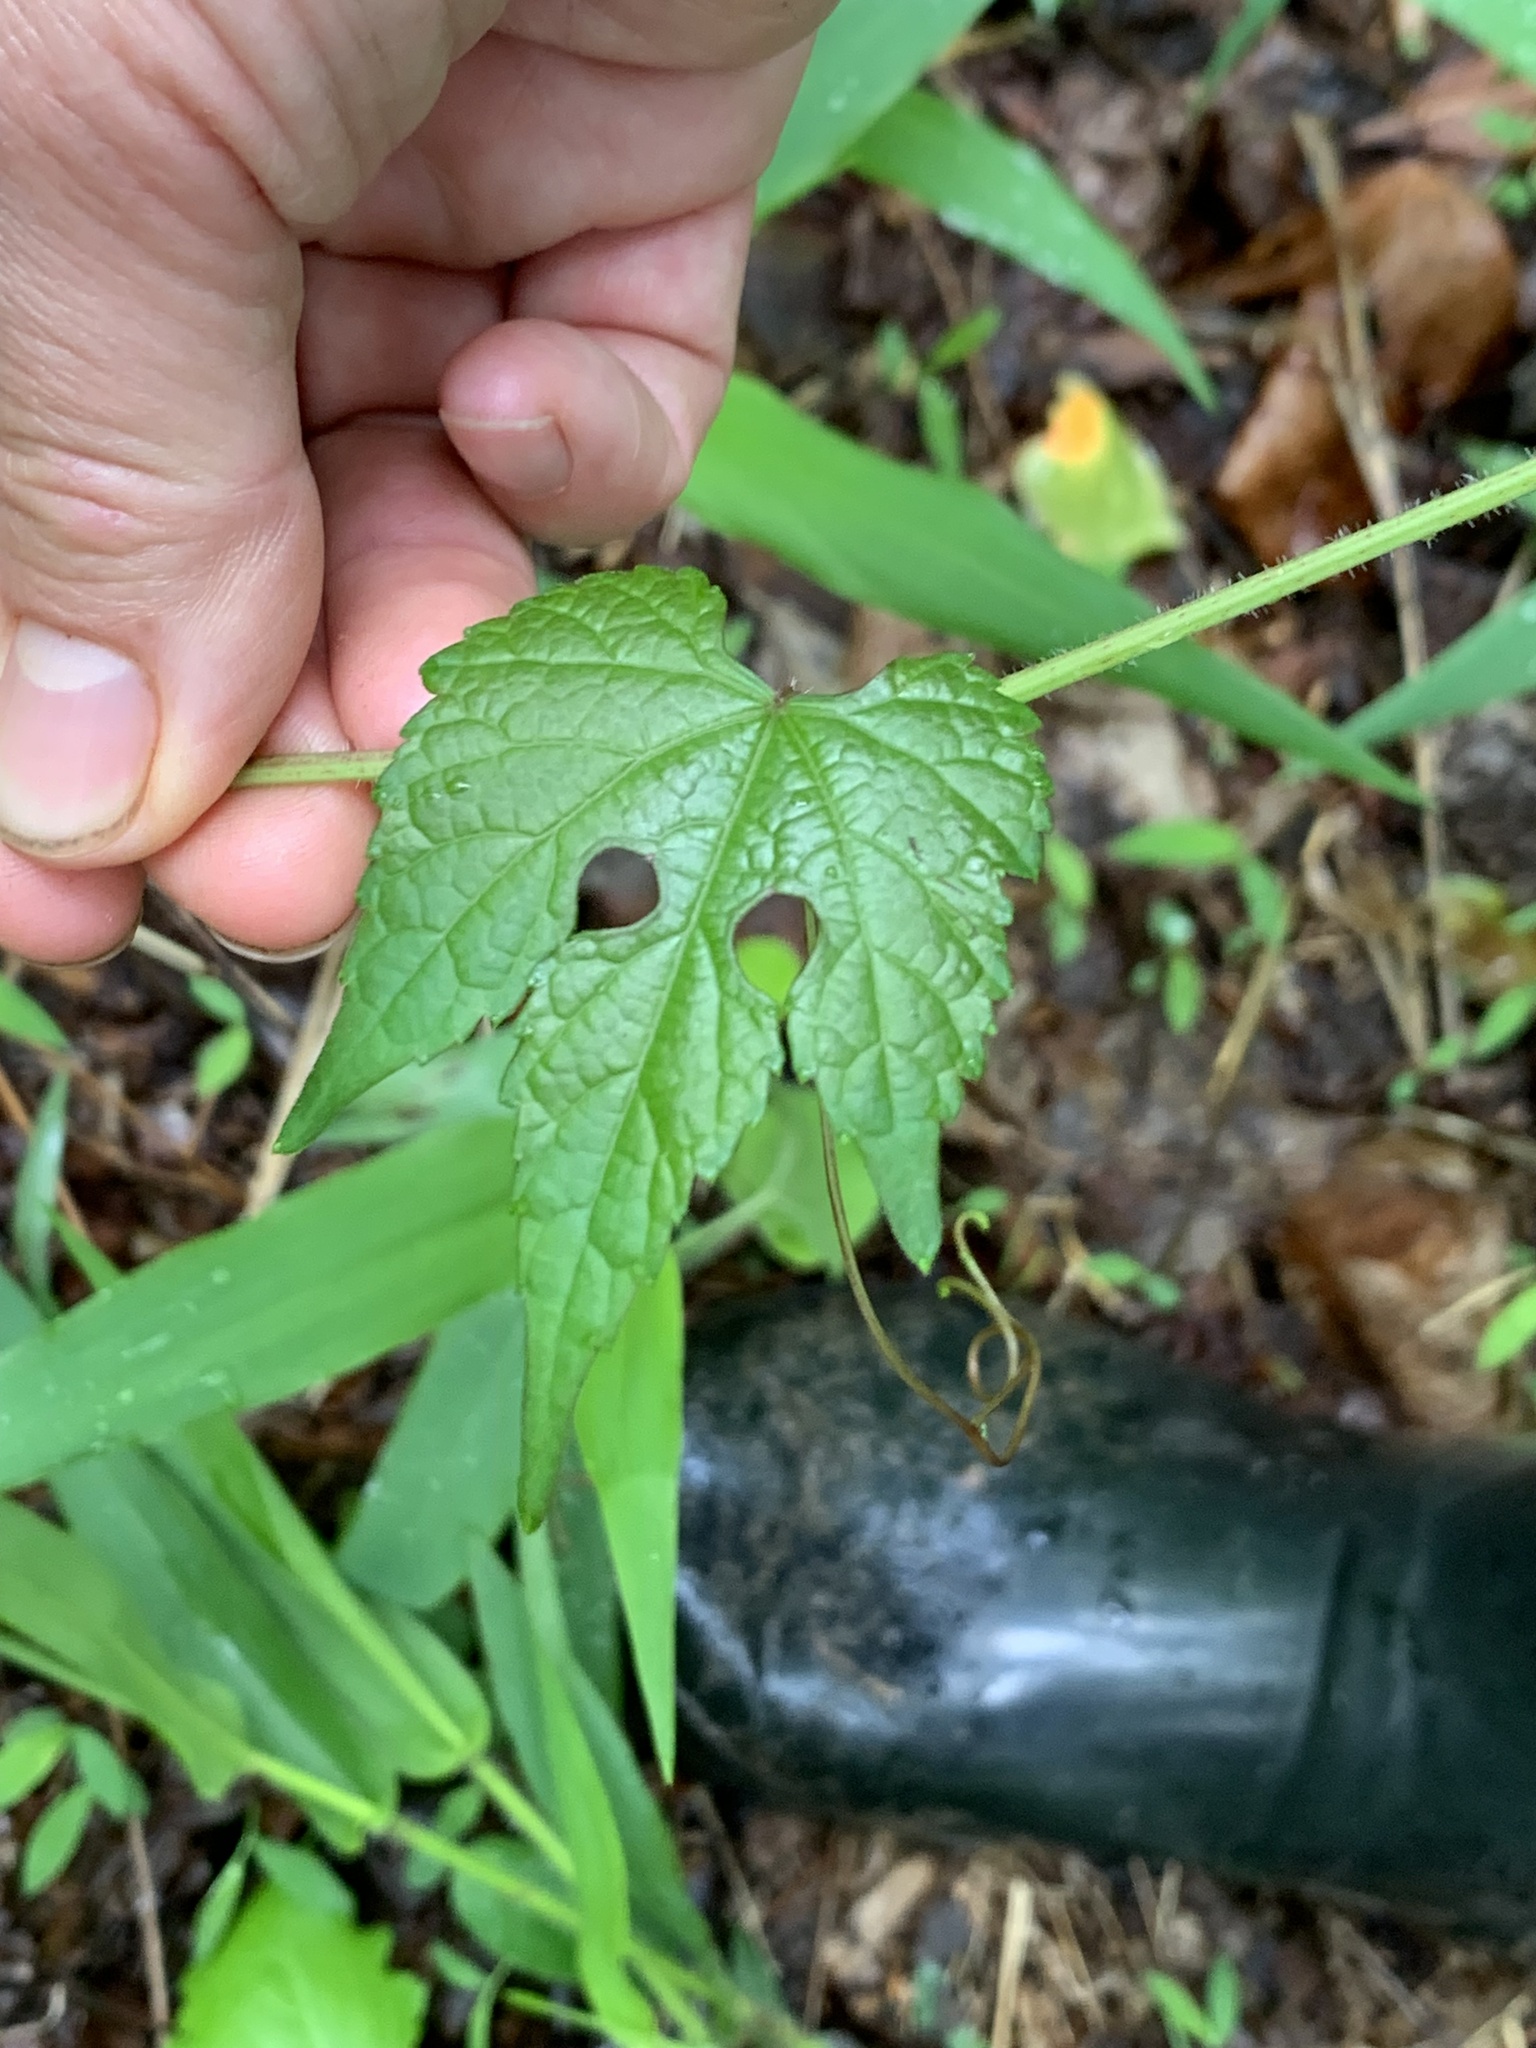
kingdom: Plantae
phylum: Tracheophyta
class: Magnoliopsida
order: Vitales
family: Vitaceae
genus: Ampelopsis
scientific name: Ampelopsis glandulosa
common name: Amur peppervine
